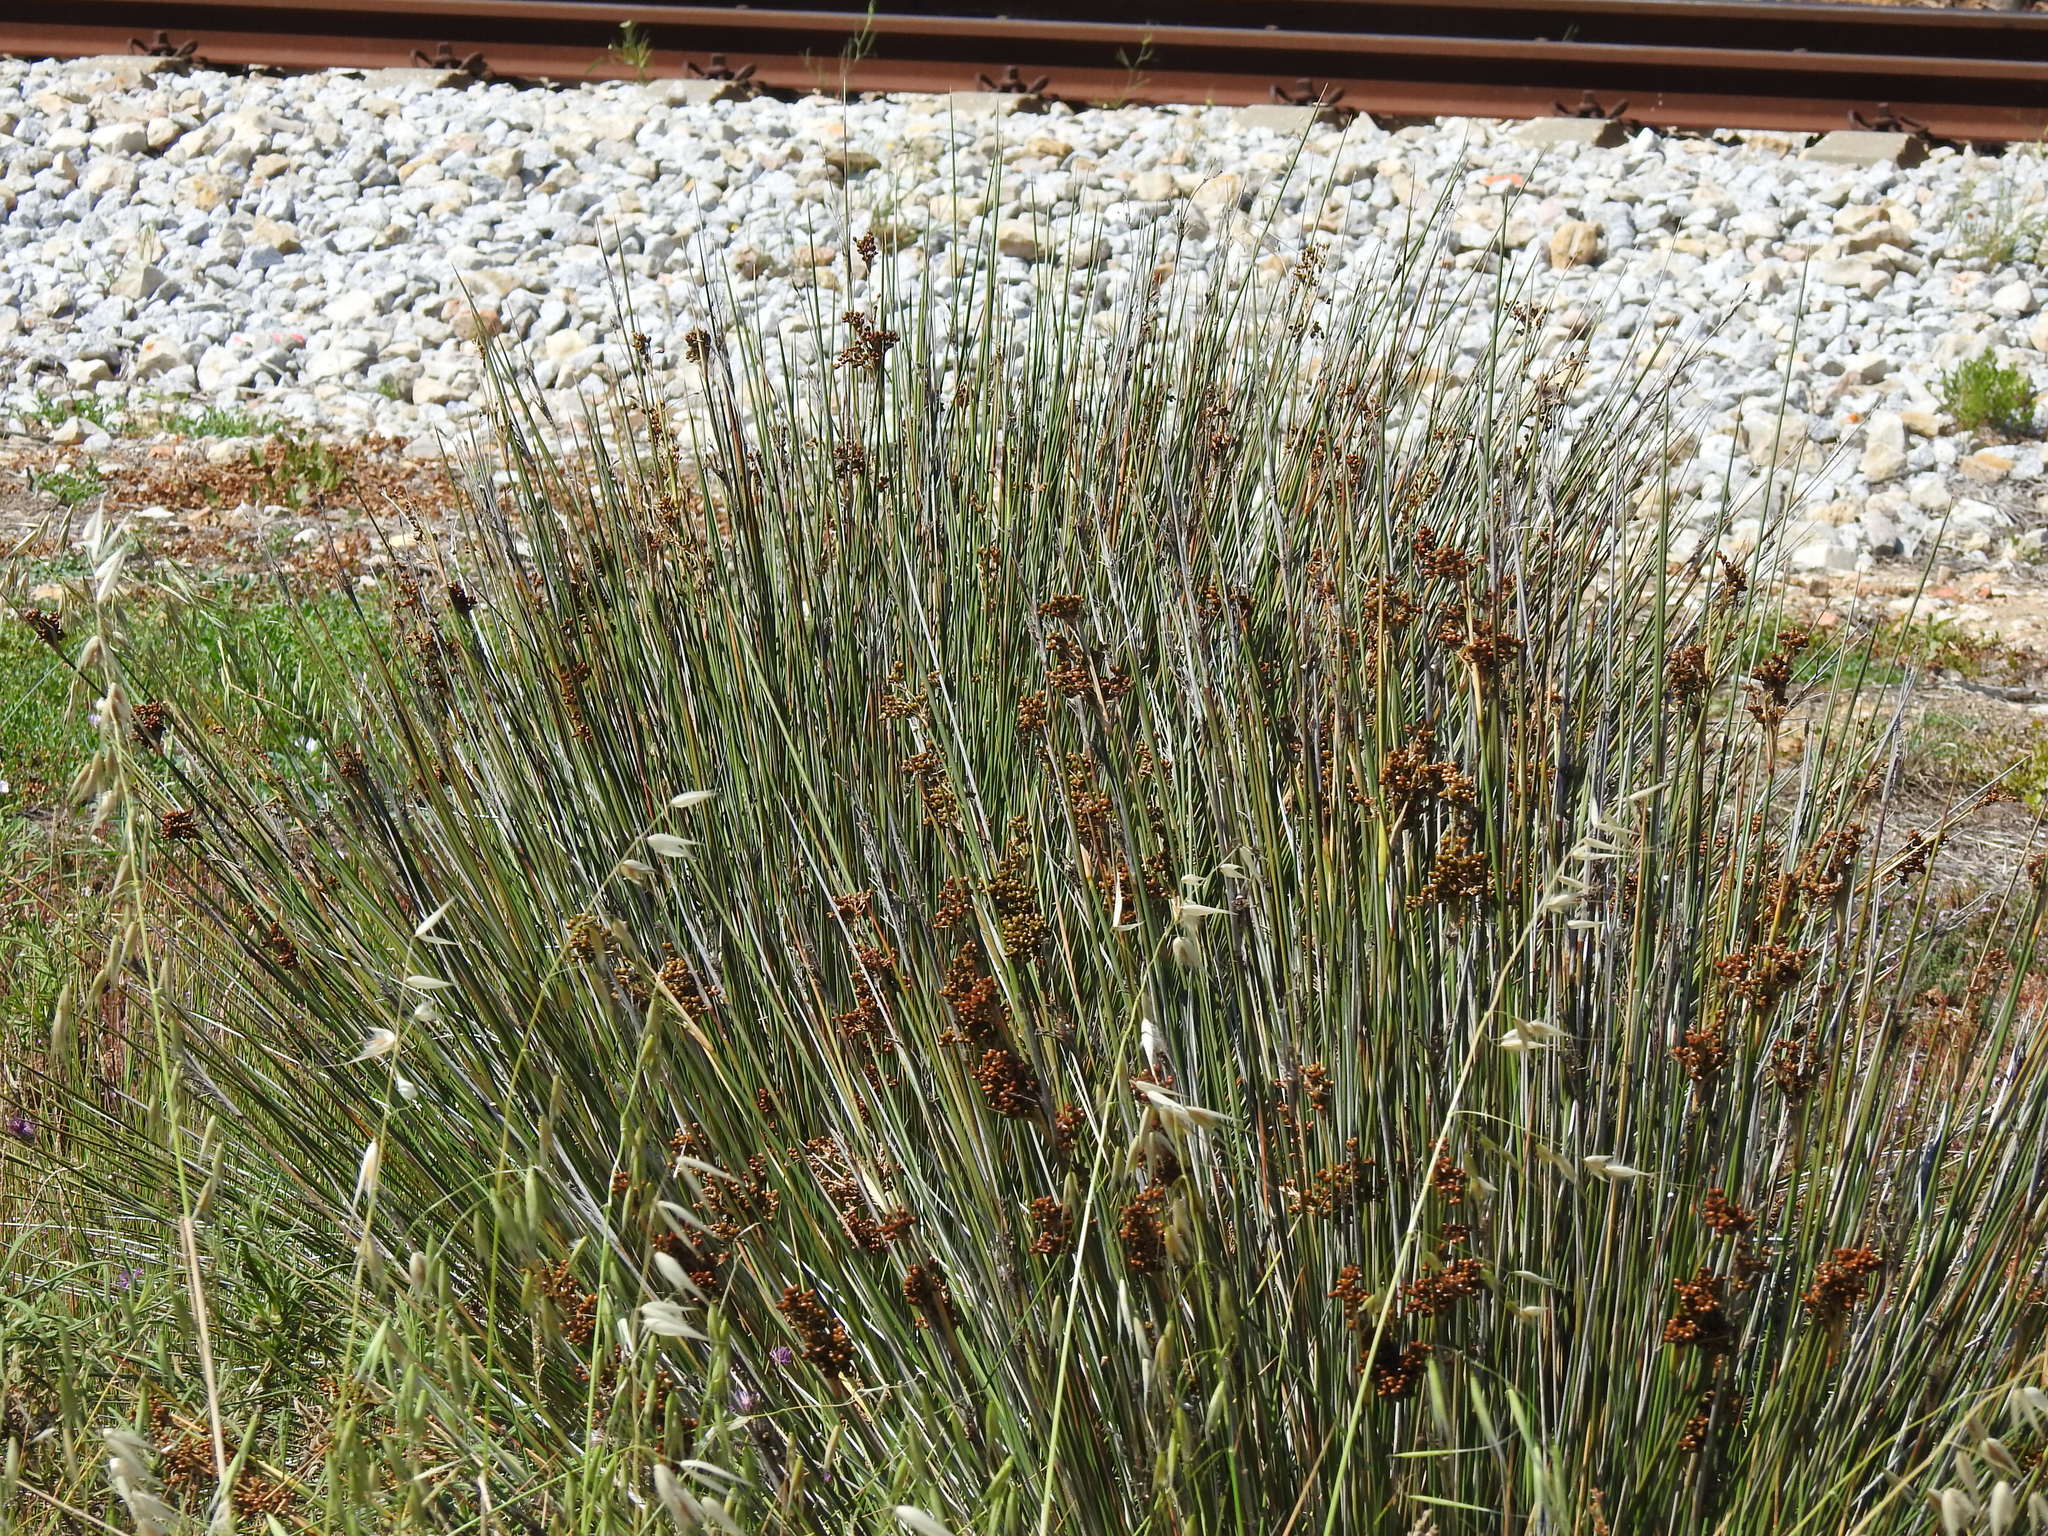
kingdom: Plantae
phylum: Tracheophyta
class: Liliopsida
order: Poales
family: Juncaceae
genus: Juncus
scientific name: Juncus acutus
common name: Sharp rush
